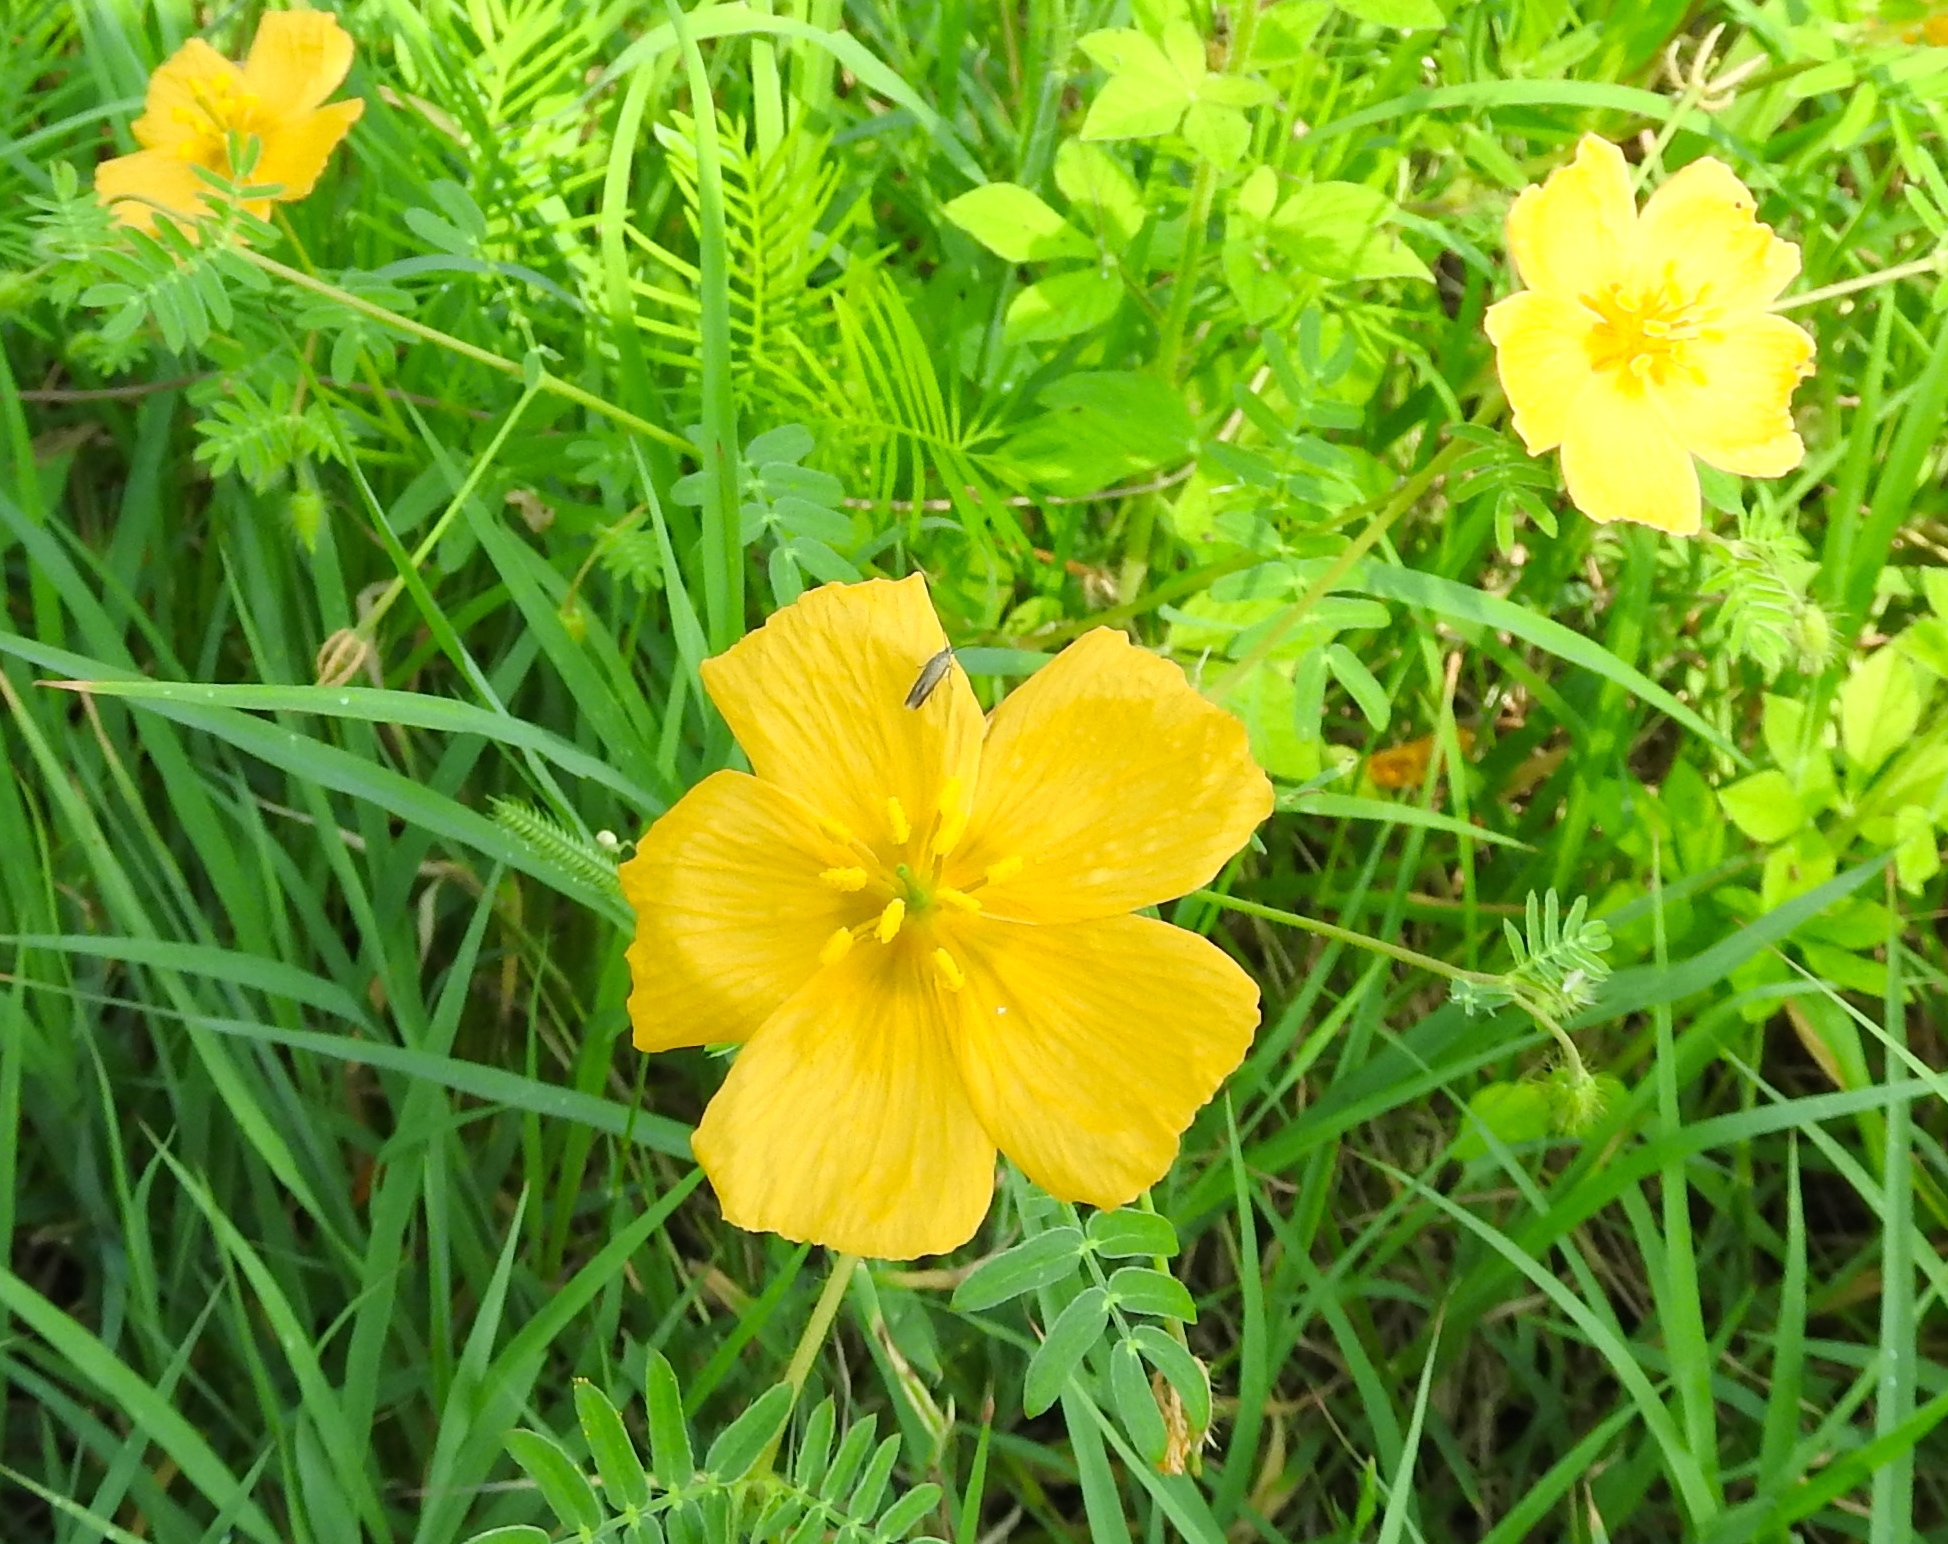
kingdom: Plantae
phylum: Tracheophyta
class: Magnoliopsida
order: Zygophyllales
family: Zygophyllaceae
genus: Kallstroemia
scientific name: Kallstroemia grandiflora
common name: Arizona-poppy
